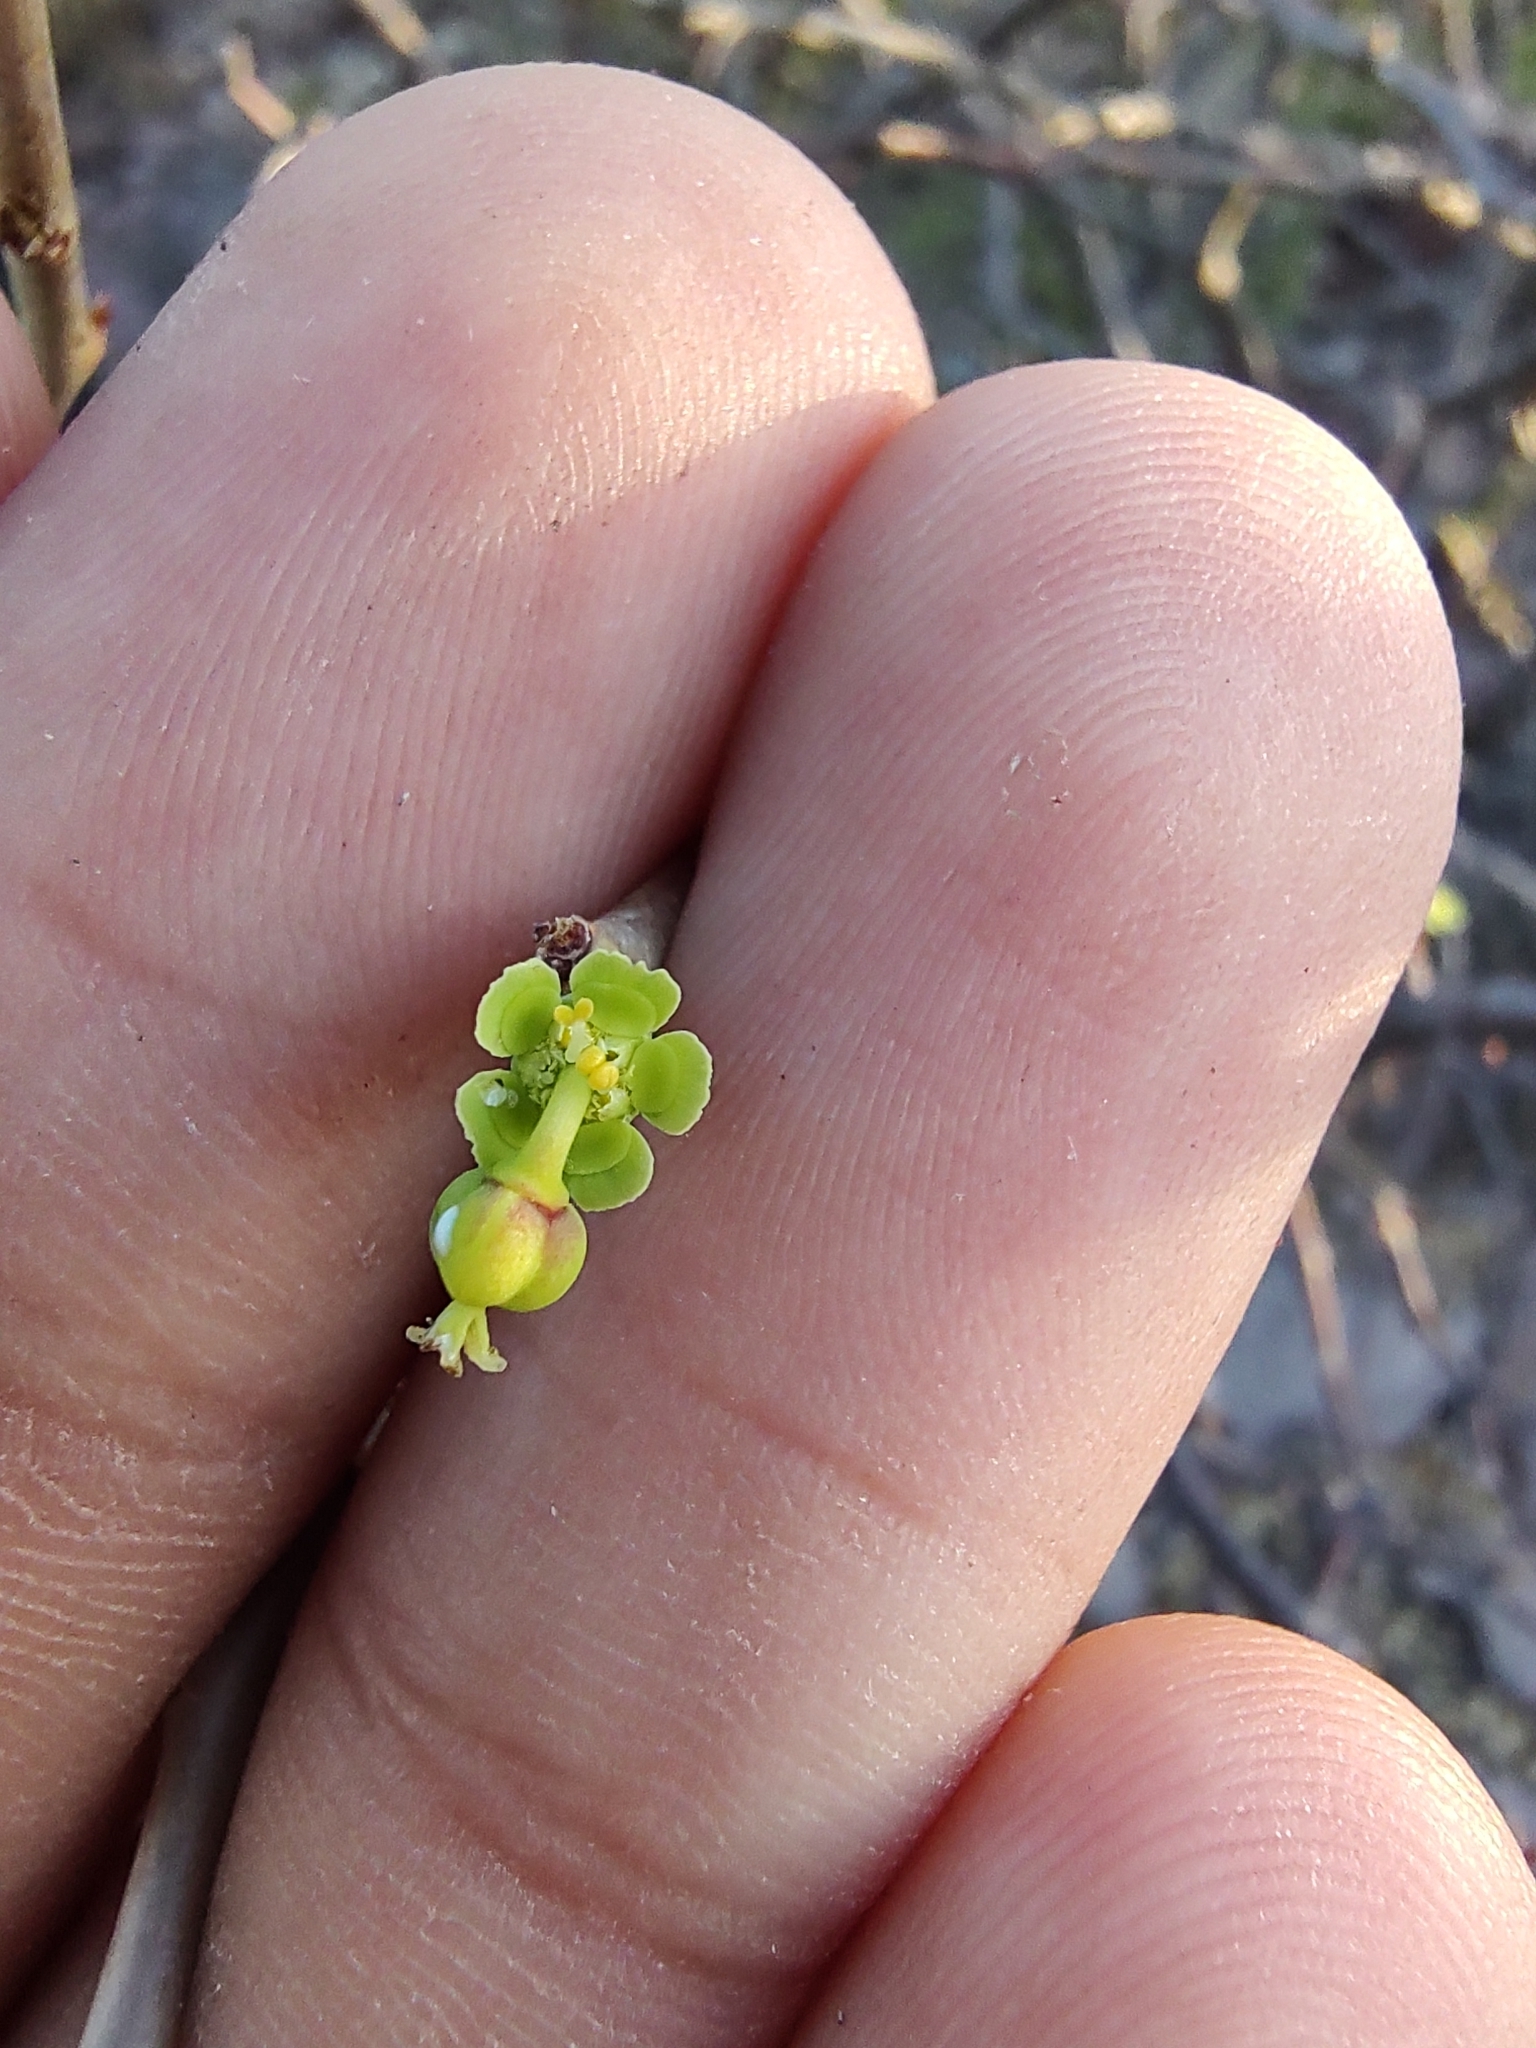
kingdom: Plantae
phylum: Tracheophyta
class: Magnoliopsida
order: Malpighiales
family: Euphorbiaceae
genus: Euphorbia
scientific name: Euphorbia californica
